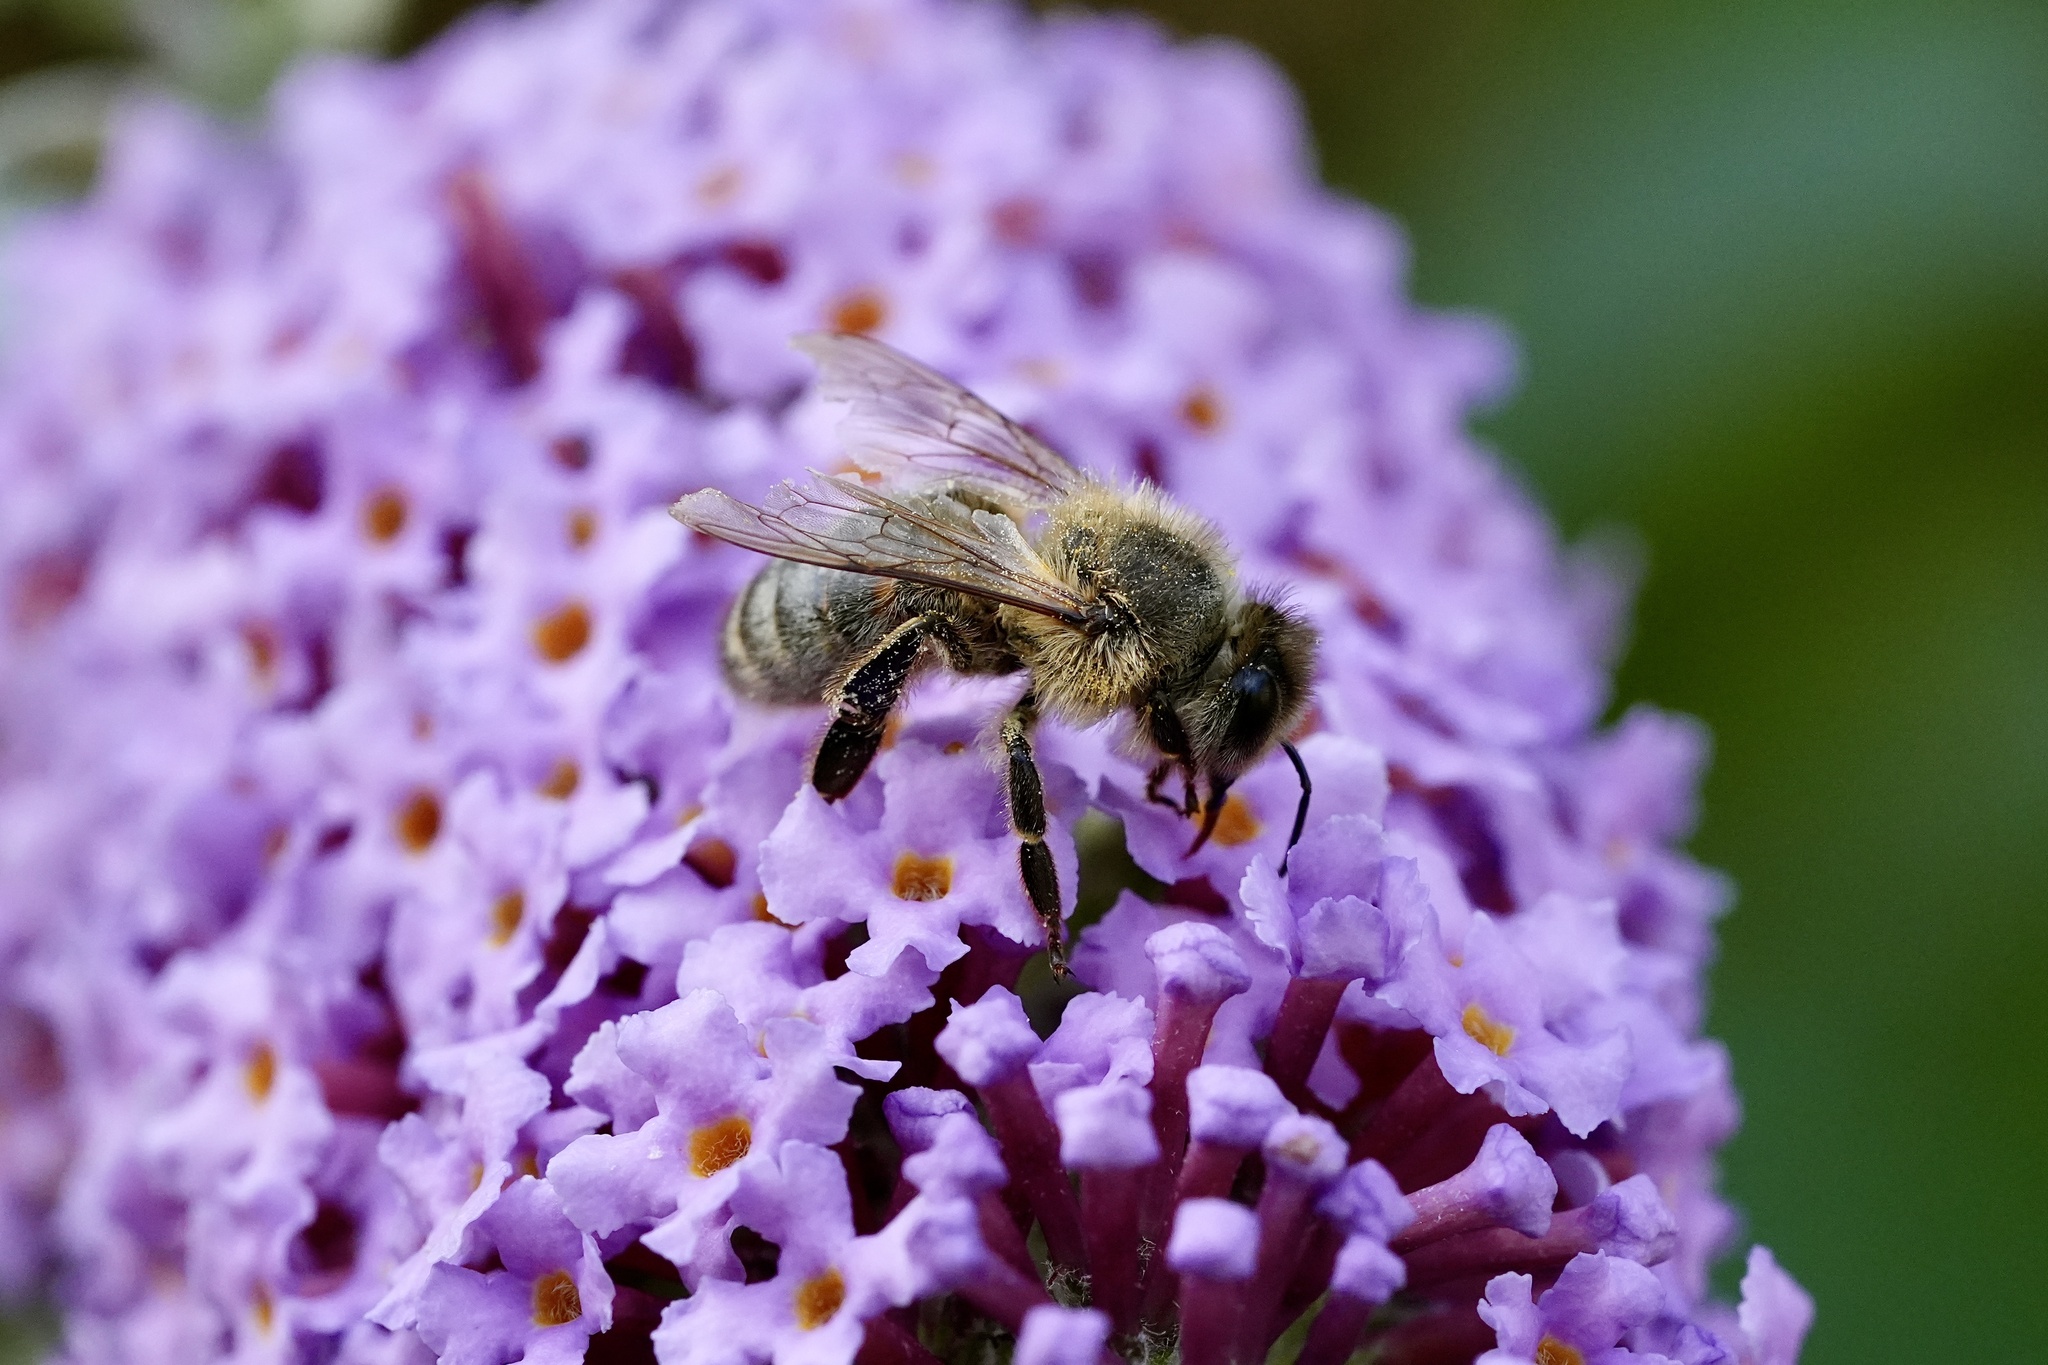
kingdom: Animalia
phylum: Arthropoda
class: Insecta
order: Hymenoptera
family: Apidae
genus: Apis
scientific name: Apis mellifera
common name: Honey bee
